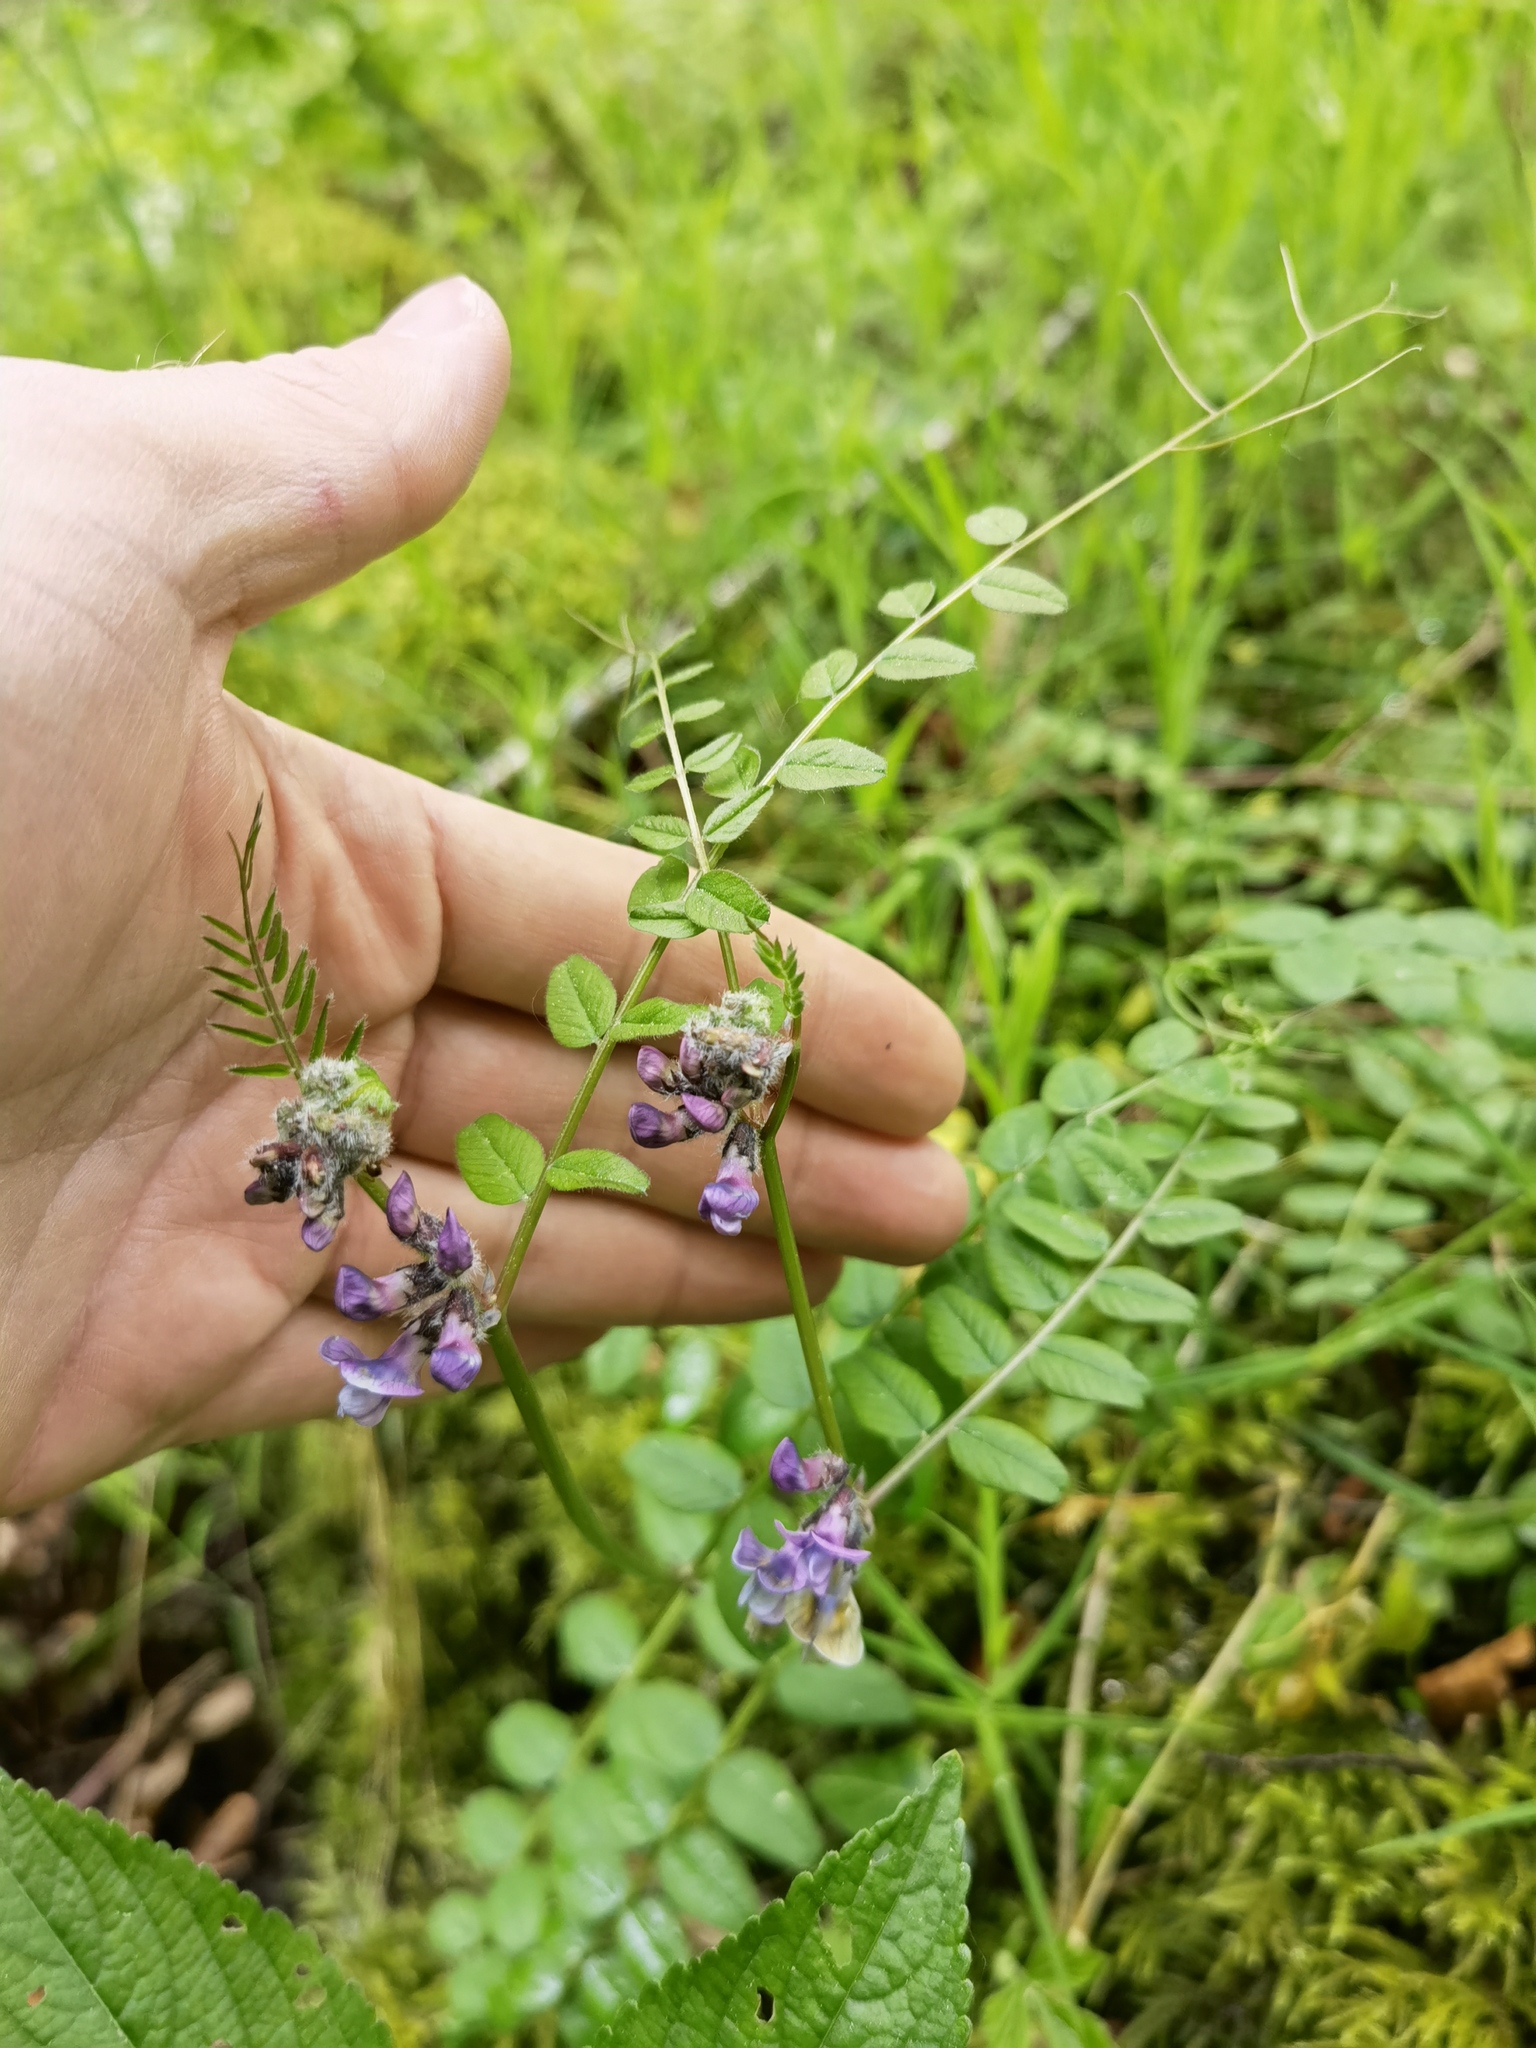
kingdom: Plantae
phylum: Tracheophyta
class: Magnoliopsida
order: Fabales
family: Fabaceae
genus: Vicia
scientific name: Vicia sepium
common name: Bush vetch
